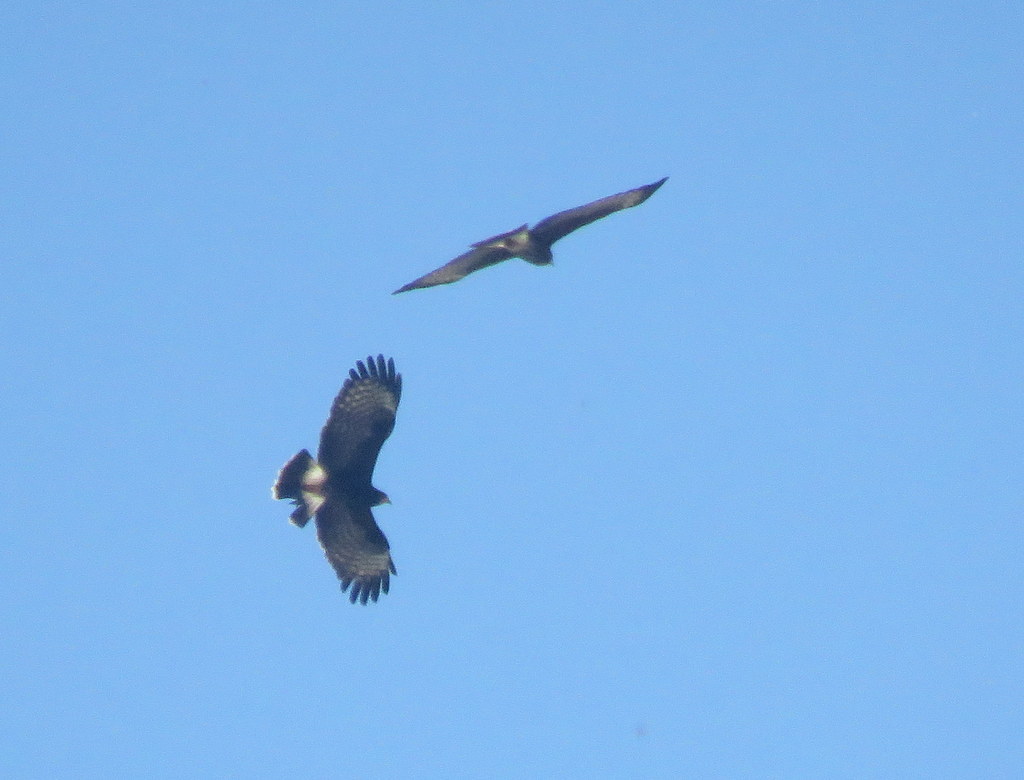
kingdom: Animalia
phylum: Chordata
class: Aves
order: Accipitriformes
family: Accipitridae
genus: Rostrhamus
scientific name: Rostrhamus sociabilis
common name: Snail kite
